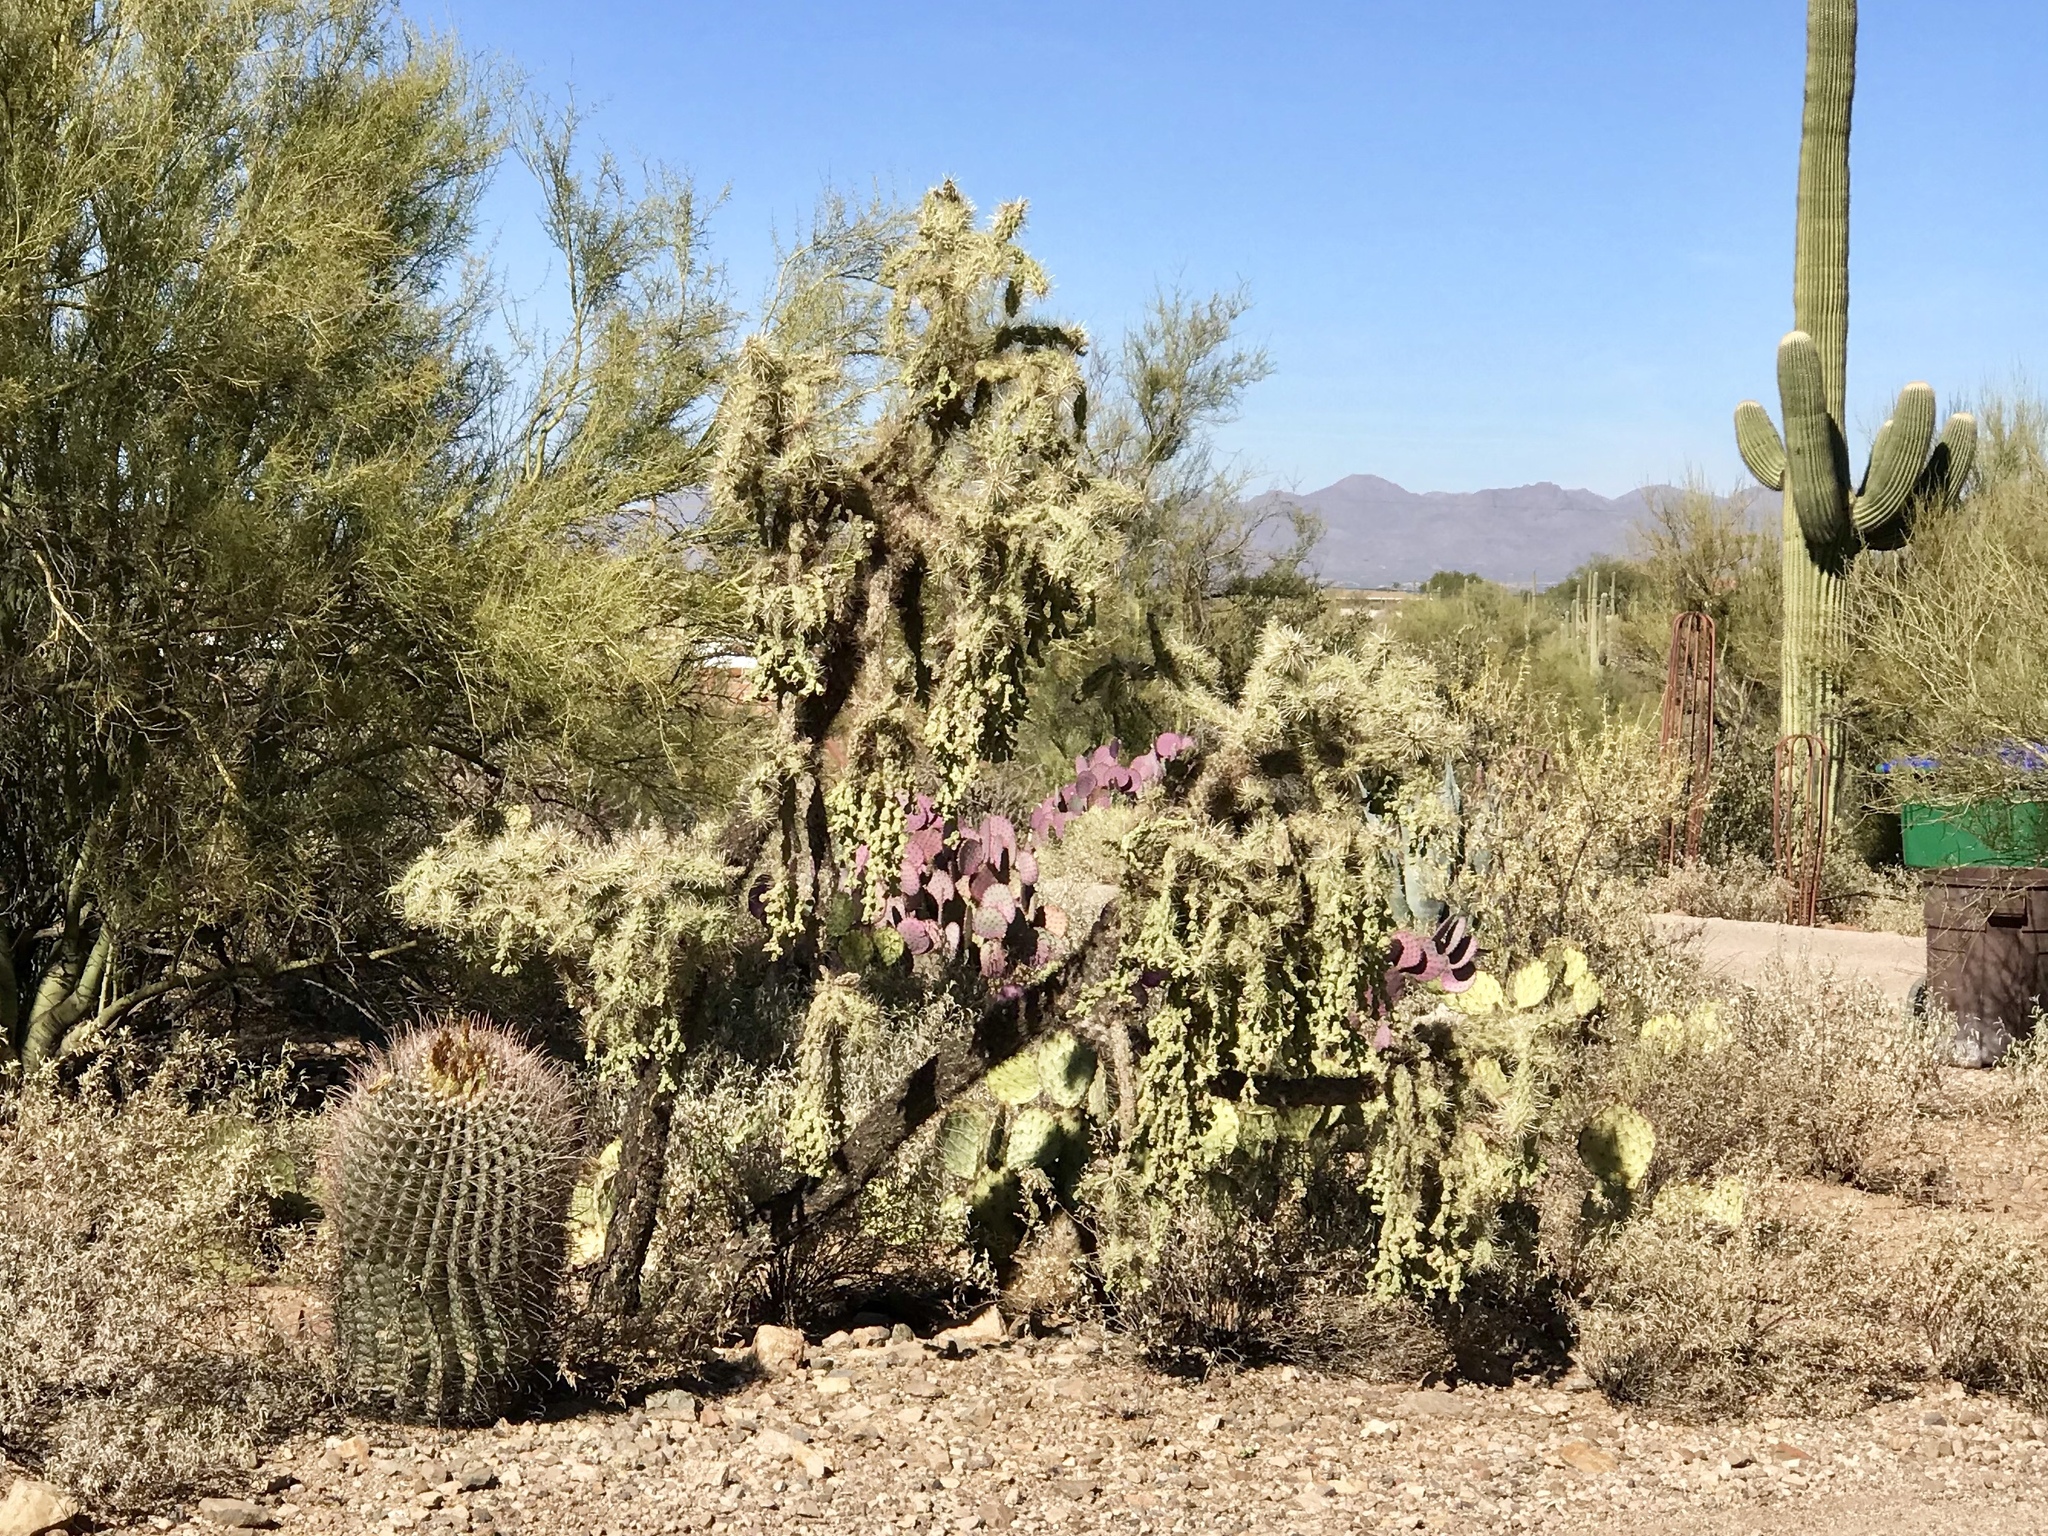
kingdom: Plantae
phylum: Tracheophyta
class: Magnoliopsida
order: Caryophyllales
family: Cactaceae
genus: Cylindropuntia
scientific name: Cylindropuntia fulgida
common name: Jumping cholla
